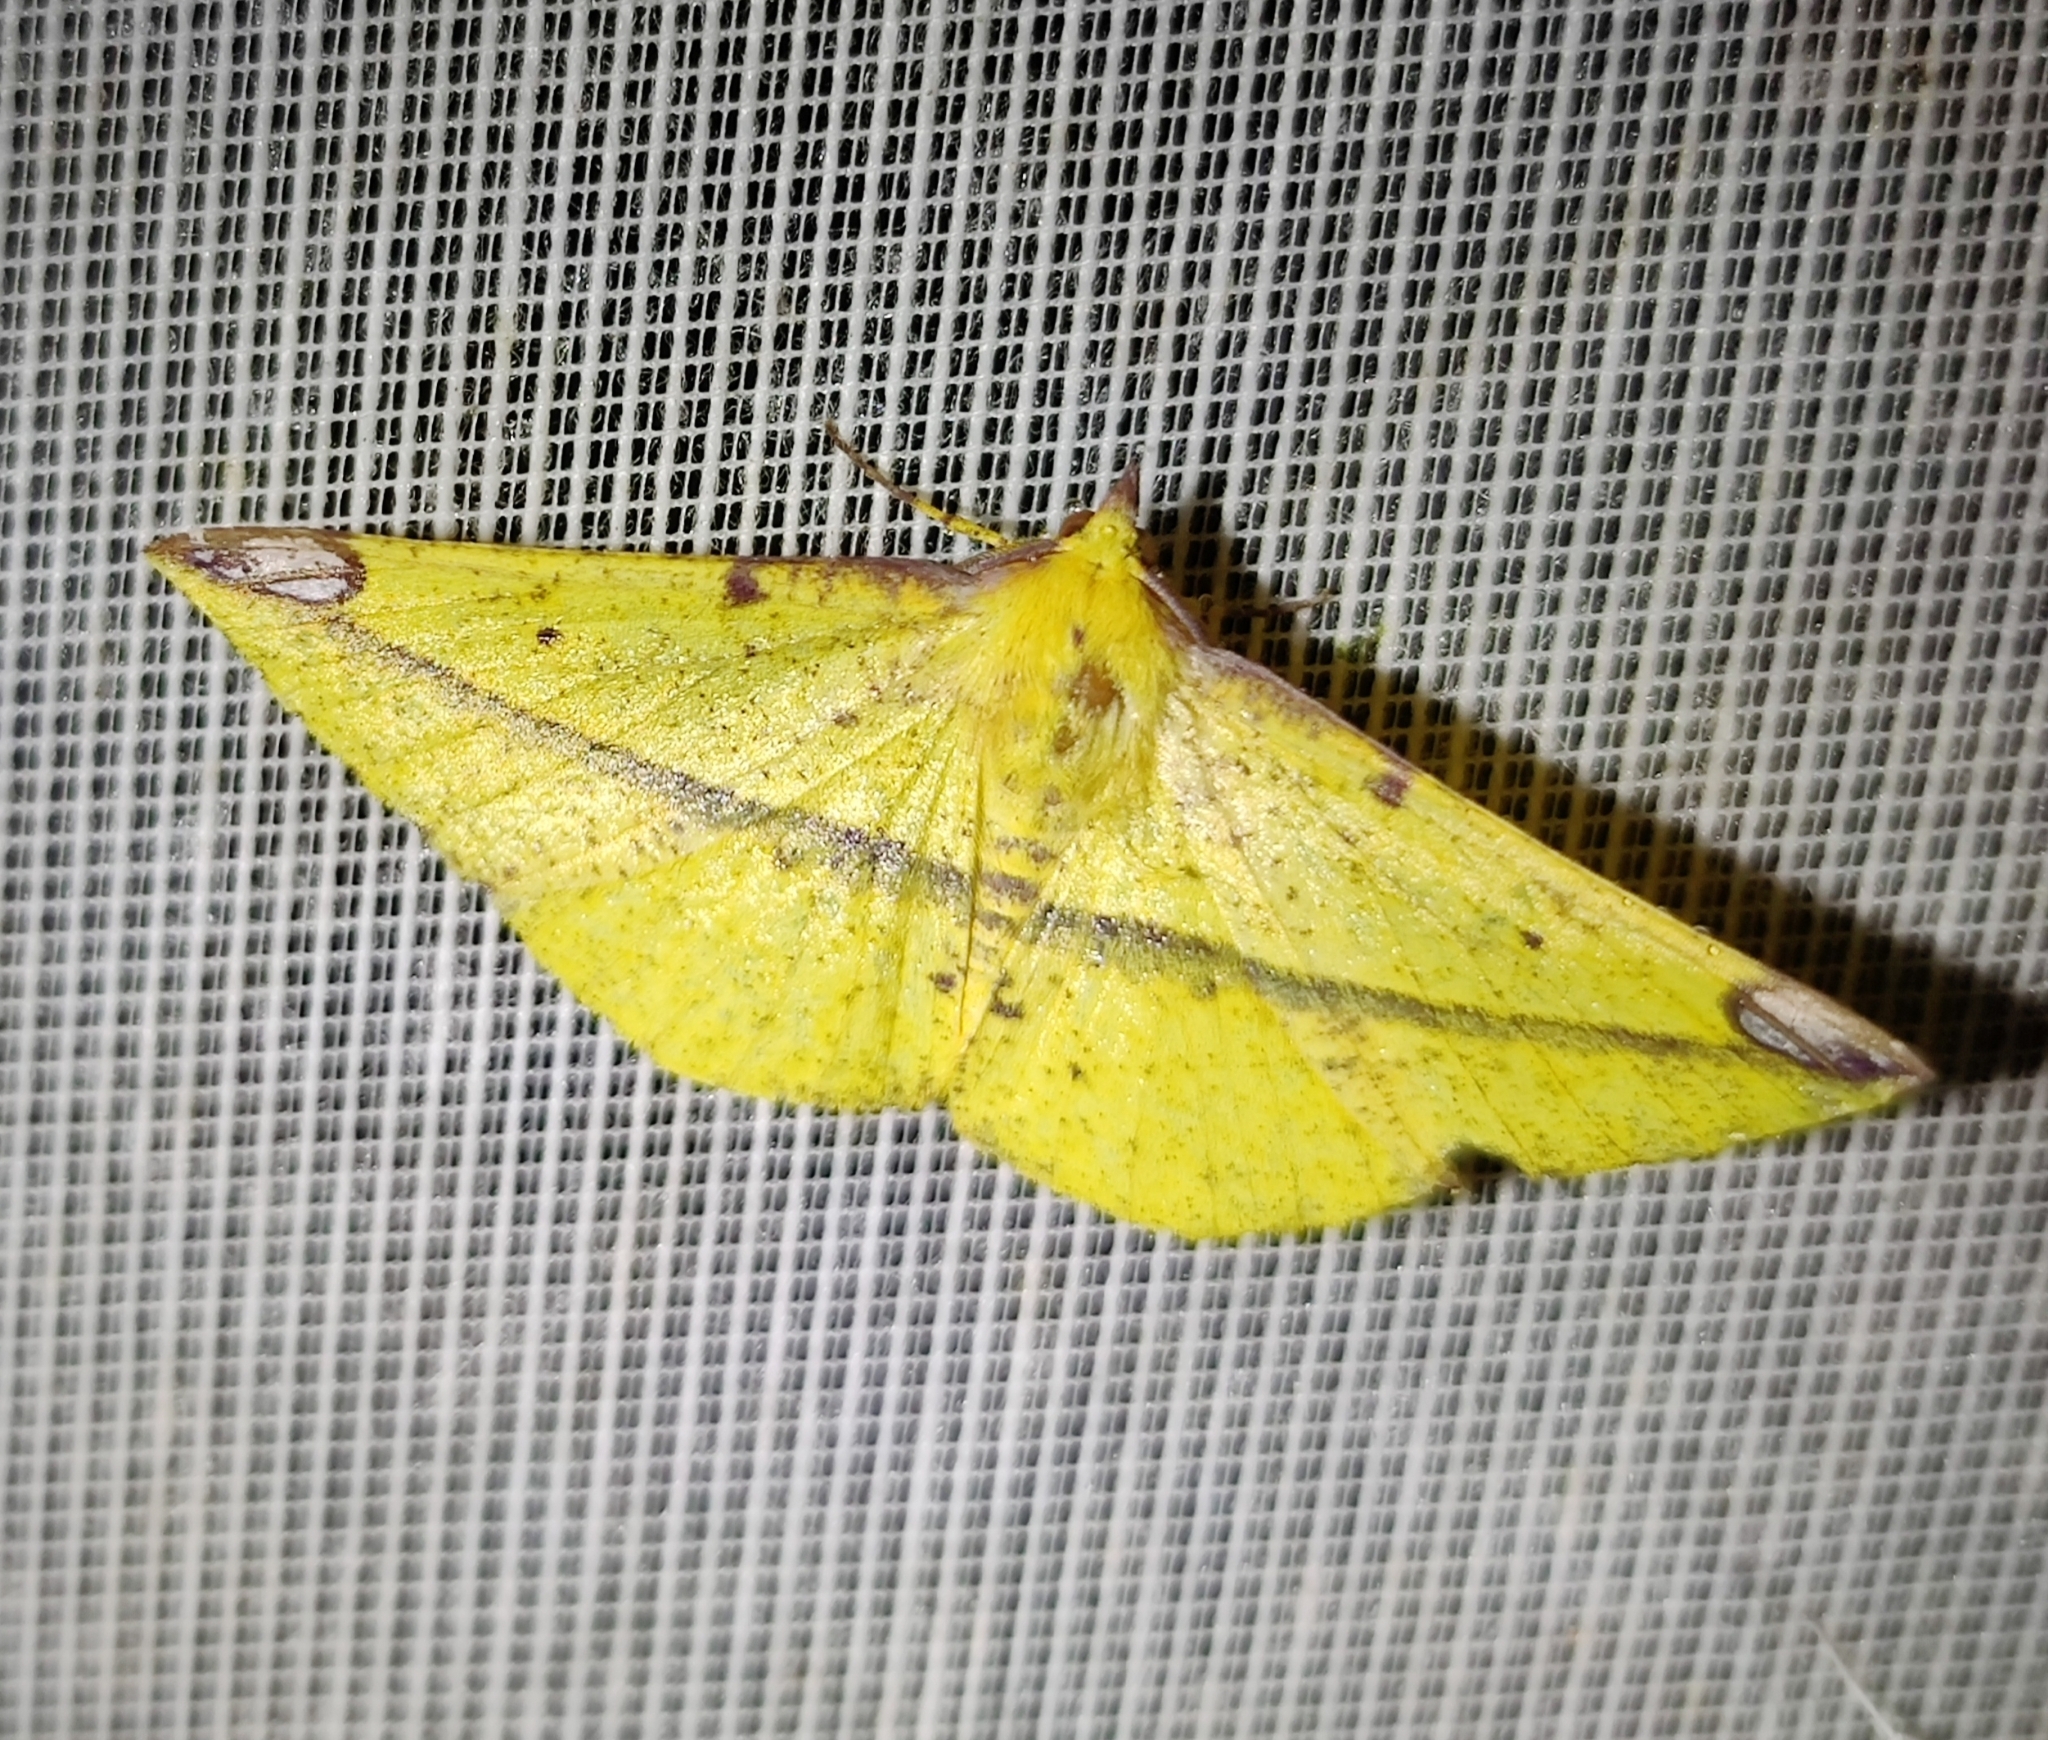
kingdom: Animalia
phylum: Arthropoda
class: Insecta
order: Lepidoptera
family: Geometridae
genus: Mimomiza
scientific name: Mimomiza cruentaria
